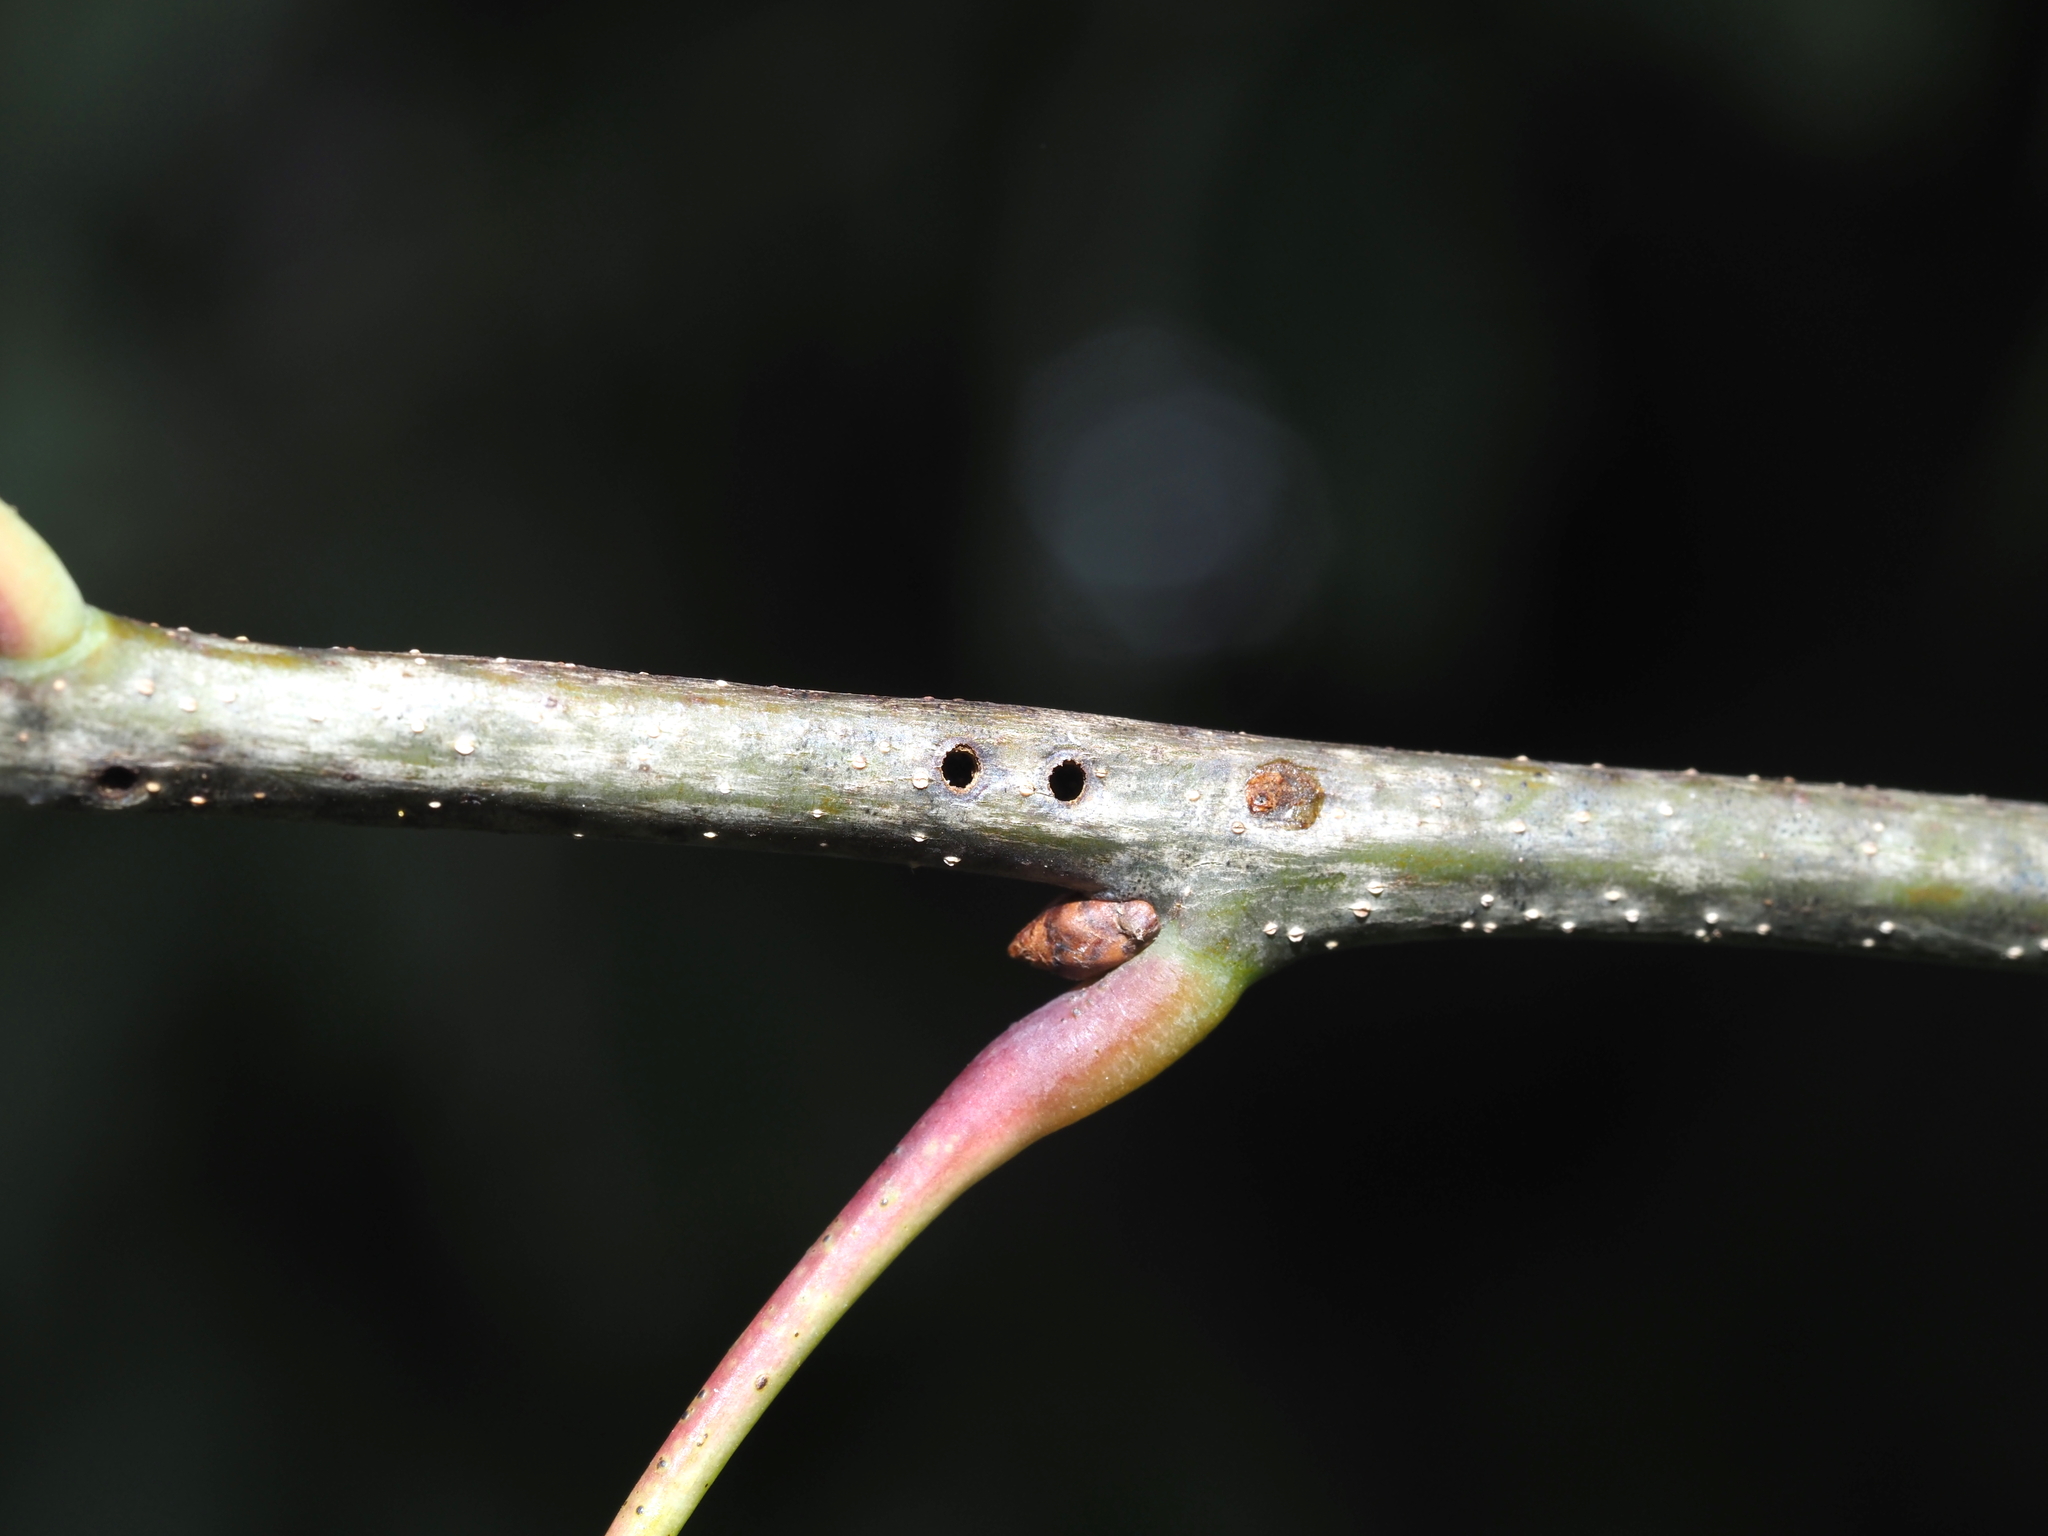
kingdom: Animalia
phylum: Arthropoda
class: Insecta
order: Hymenoptera
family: Cynipidae
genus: Callirhytis
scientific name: Callirhytis
